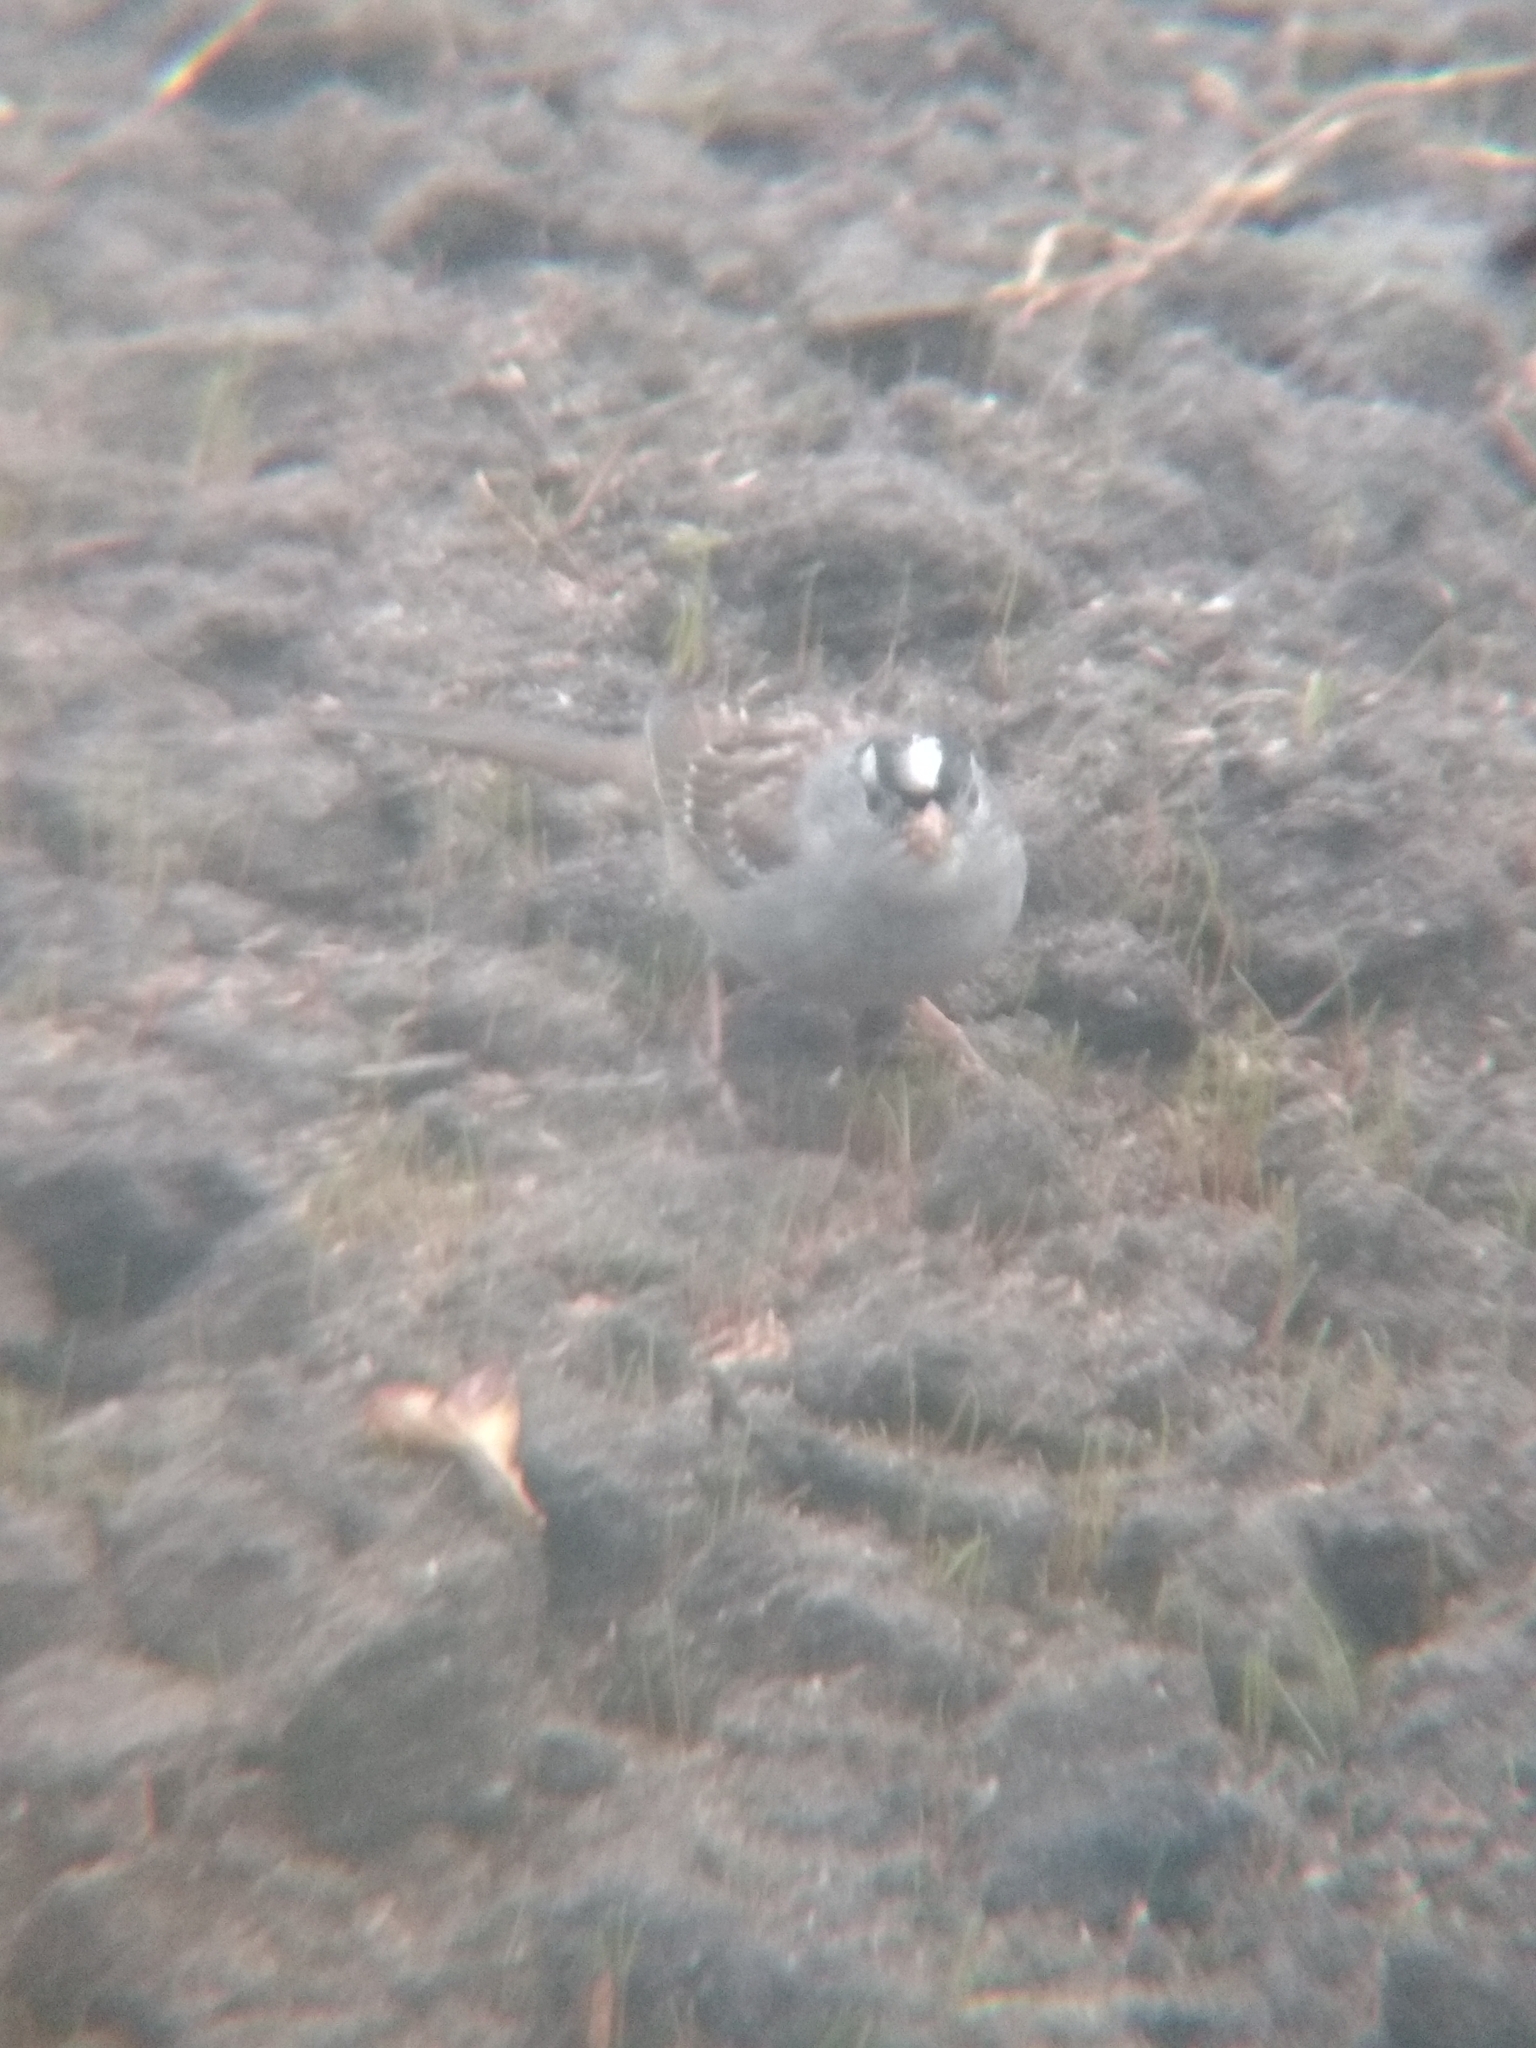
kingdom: Animalia
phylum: Chordata
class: Aves
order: Passeriformes
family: Passerellidae
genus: Zonotrichia
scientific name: Zonotrichia leucophrys
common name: White-crowned sparrow
